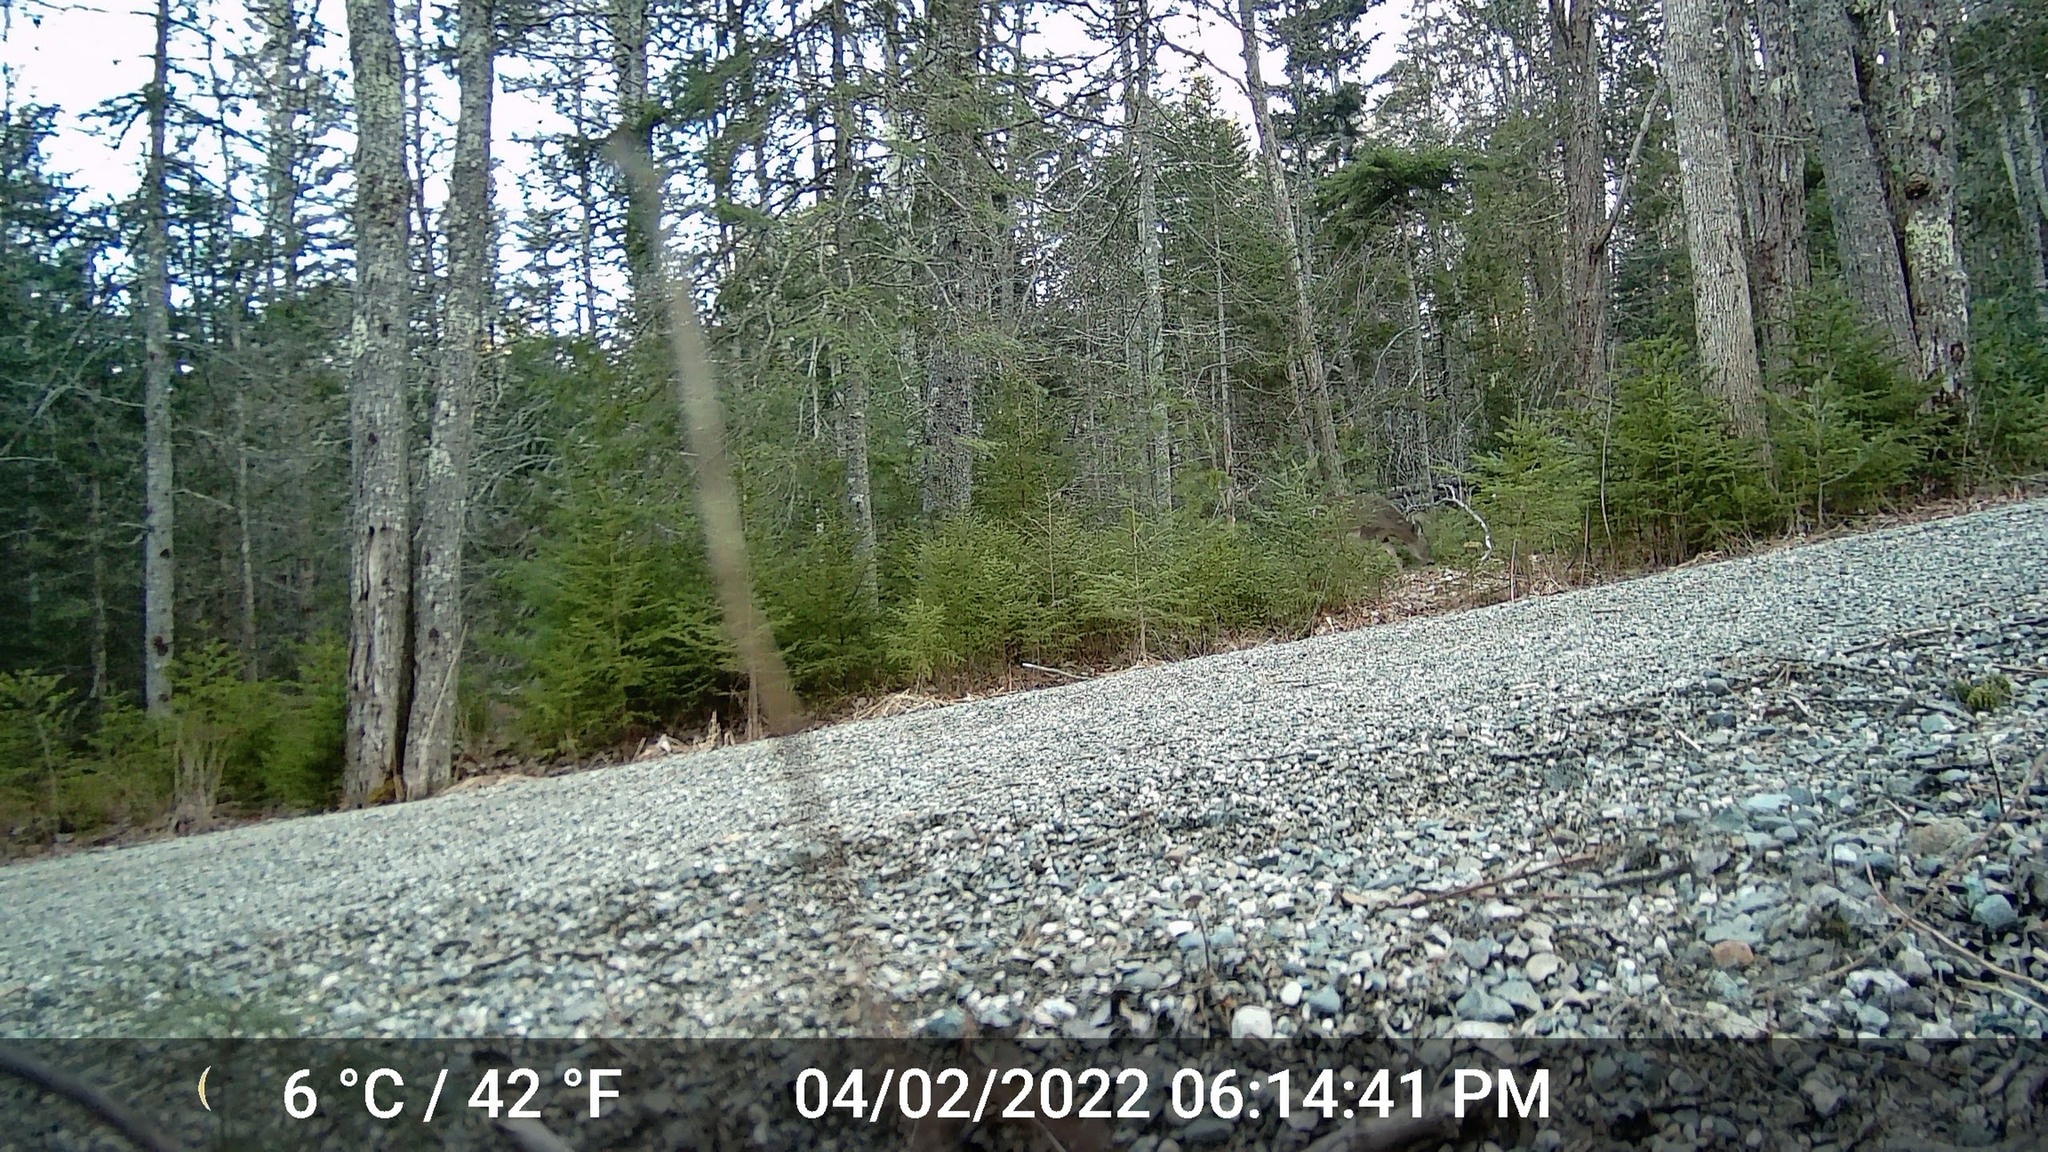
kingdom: Animalia
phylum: Chordata
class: Mammalia
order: Artiodactyla
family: Cervidae
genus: Odocoileus
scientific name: Odocoileus virginianus
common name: White-tailed deer
